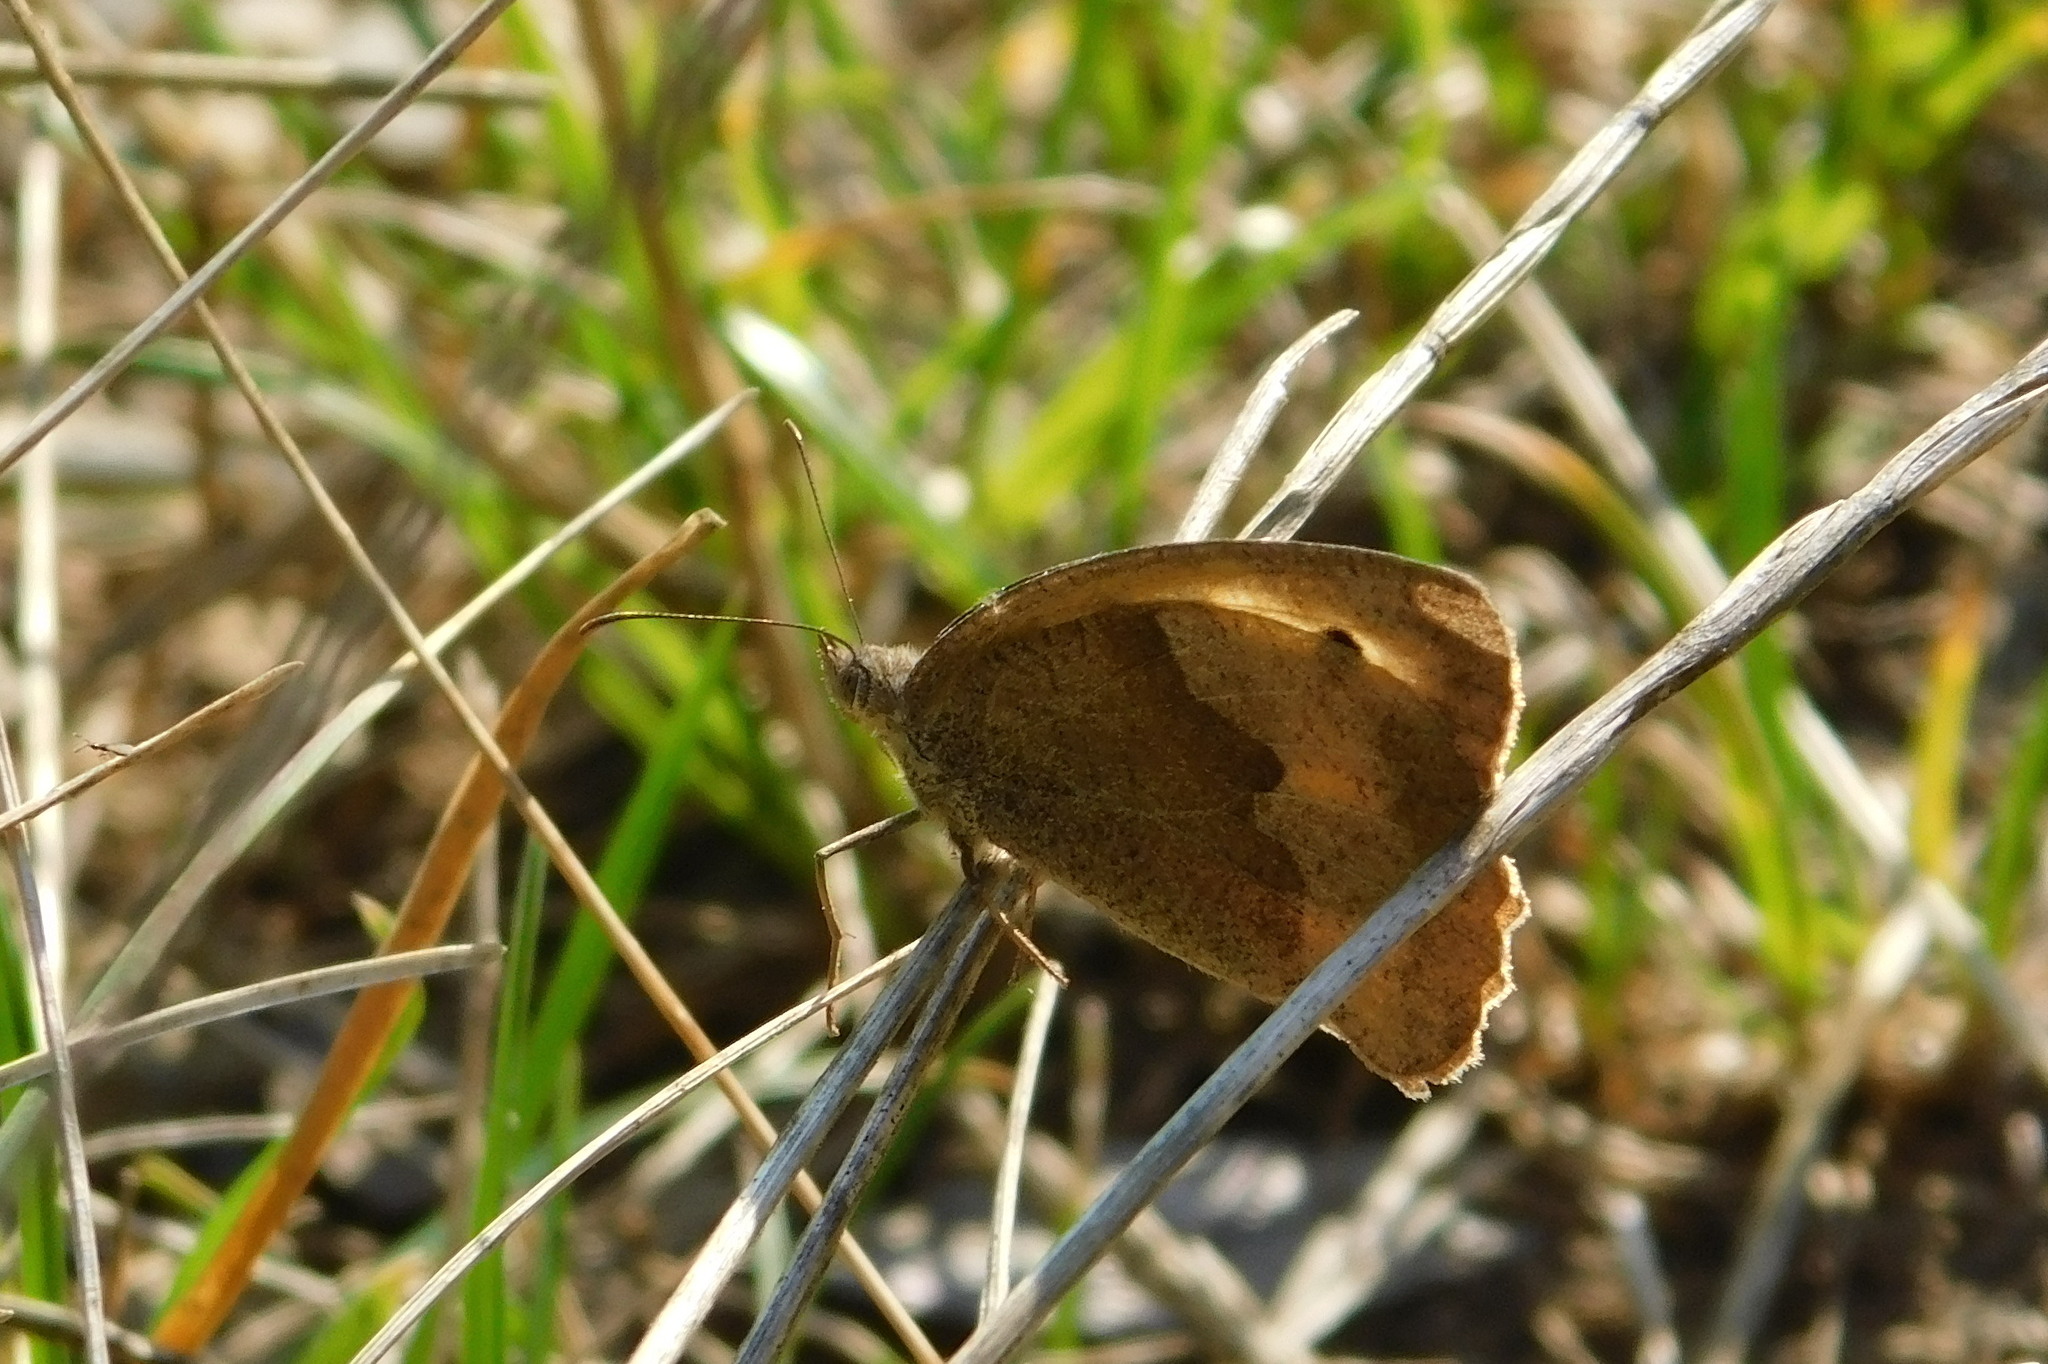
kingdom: Animalia
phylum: Arthropoda
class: Insecta
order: Lepidoptera
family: Nymphalidae
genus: Maniola
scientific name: Maniola jurtina
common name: Meadow brown
